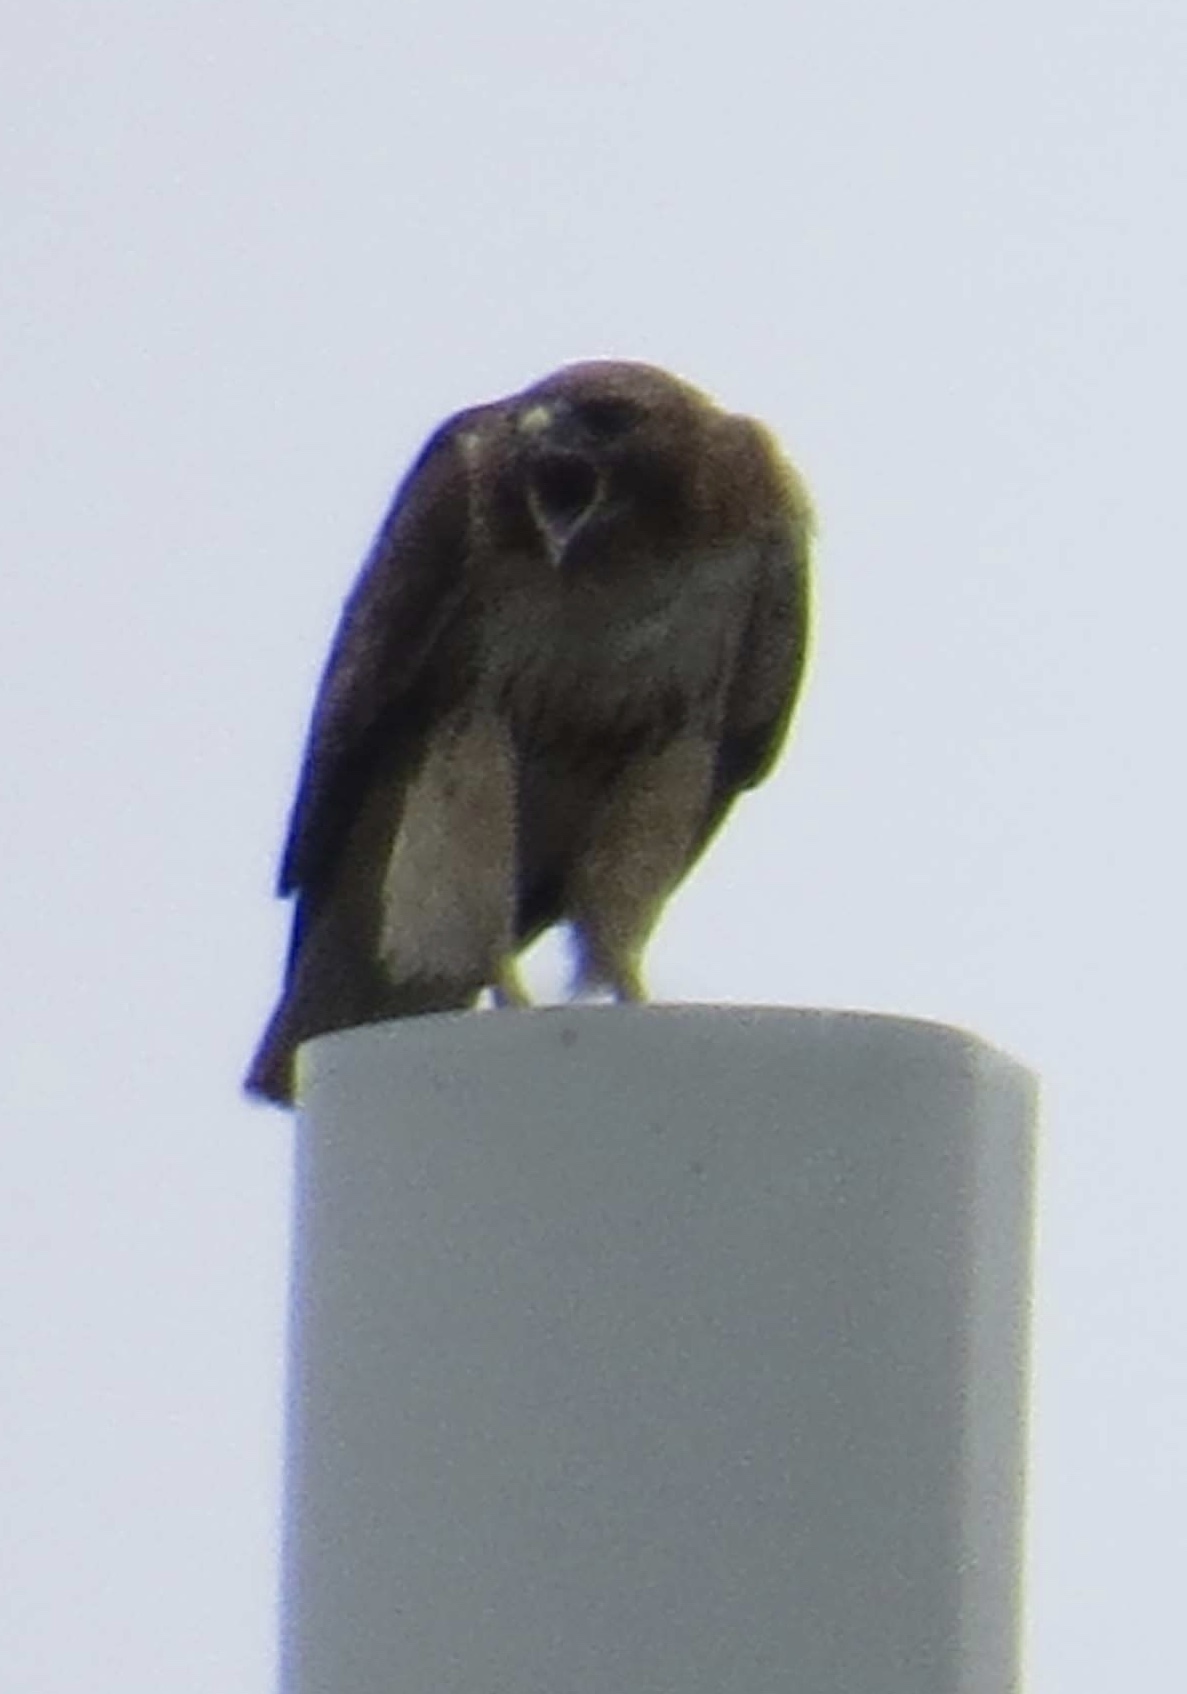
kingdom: Animalia
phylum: Chordata
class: Aves
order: Accipitriformes
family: Accipitridae
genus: Buteo
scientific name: Buteo jamaicensis
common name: Red-tailed hawk
